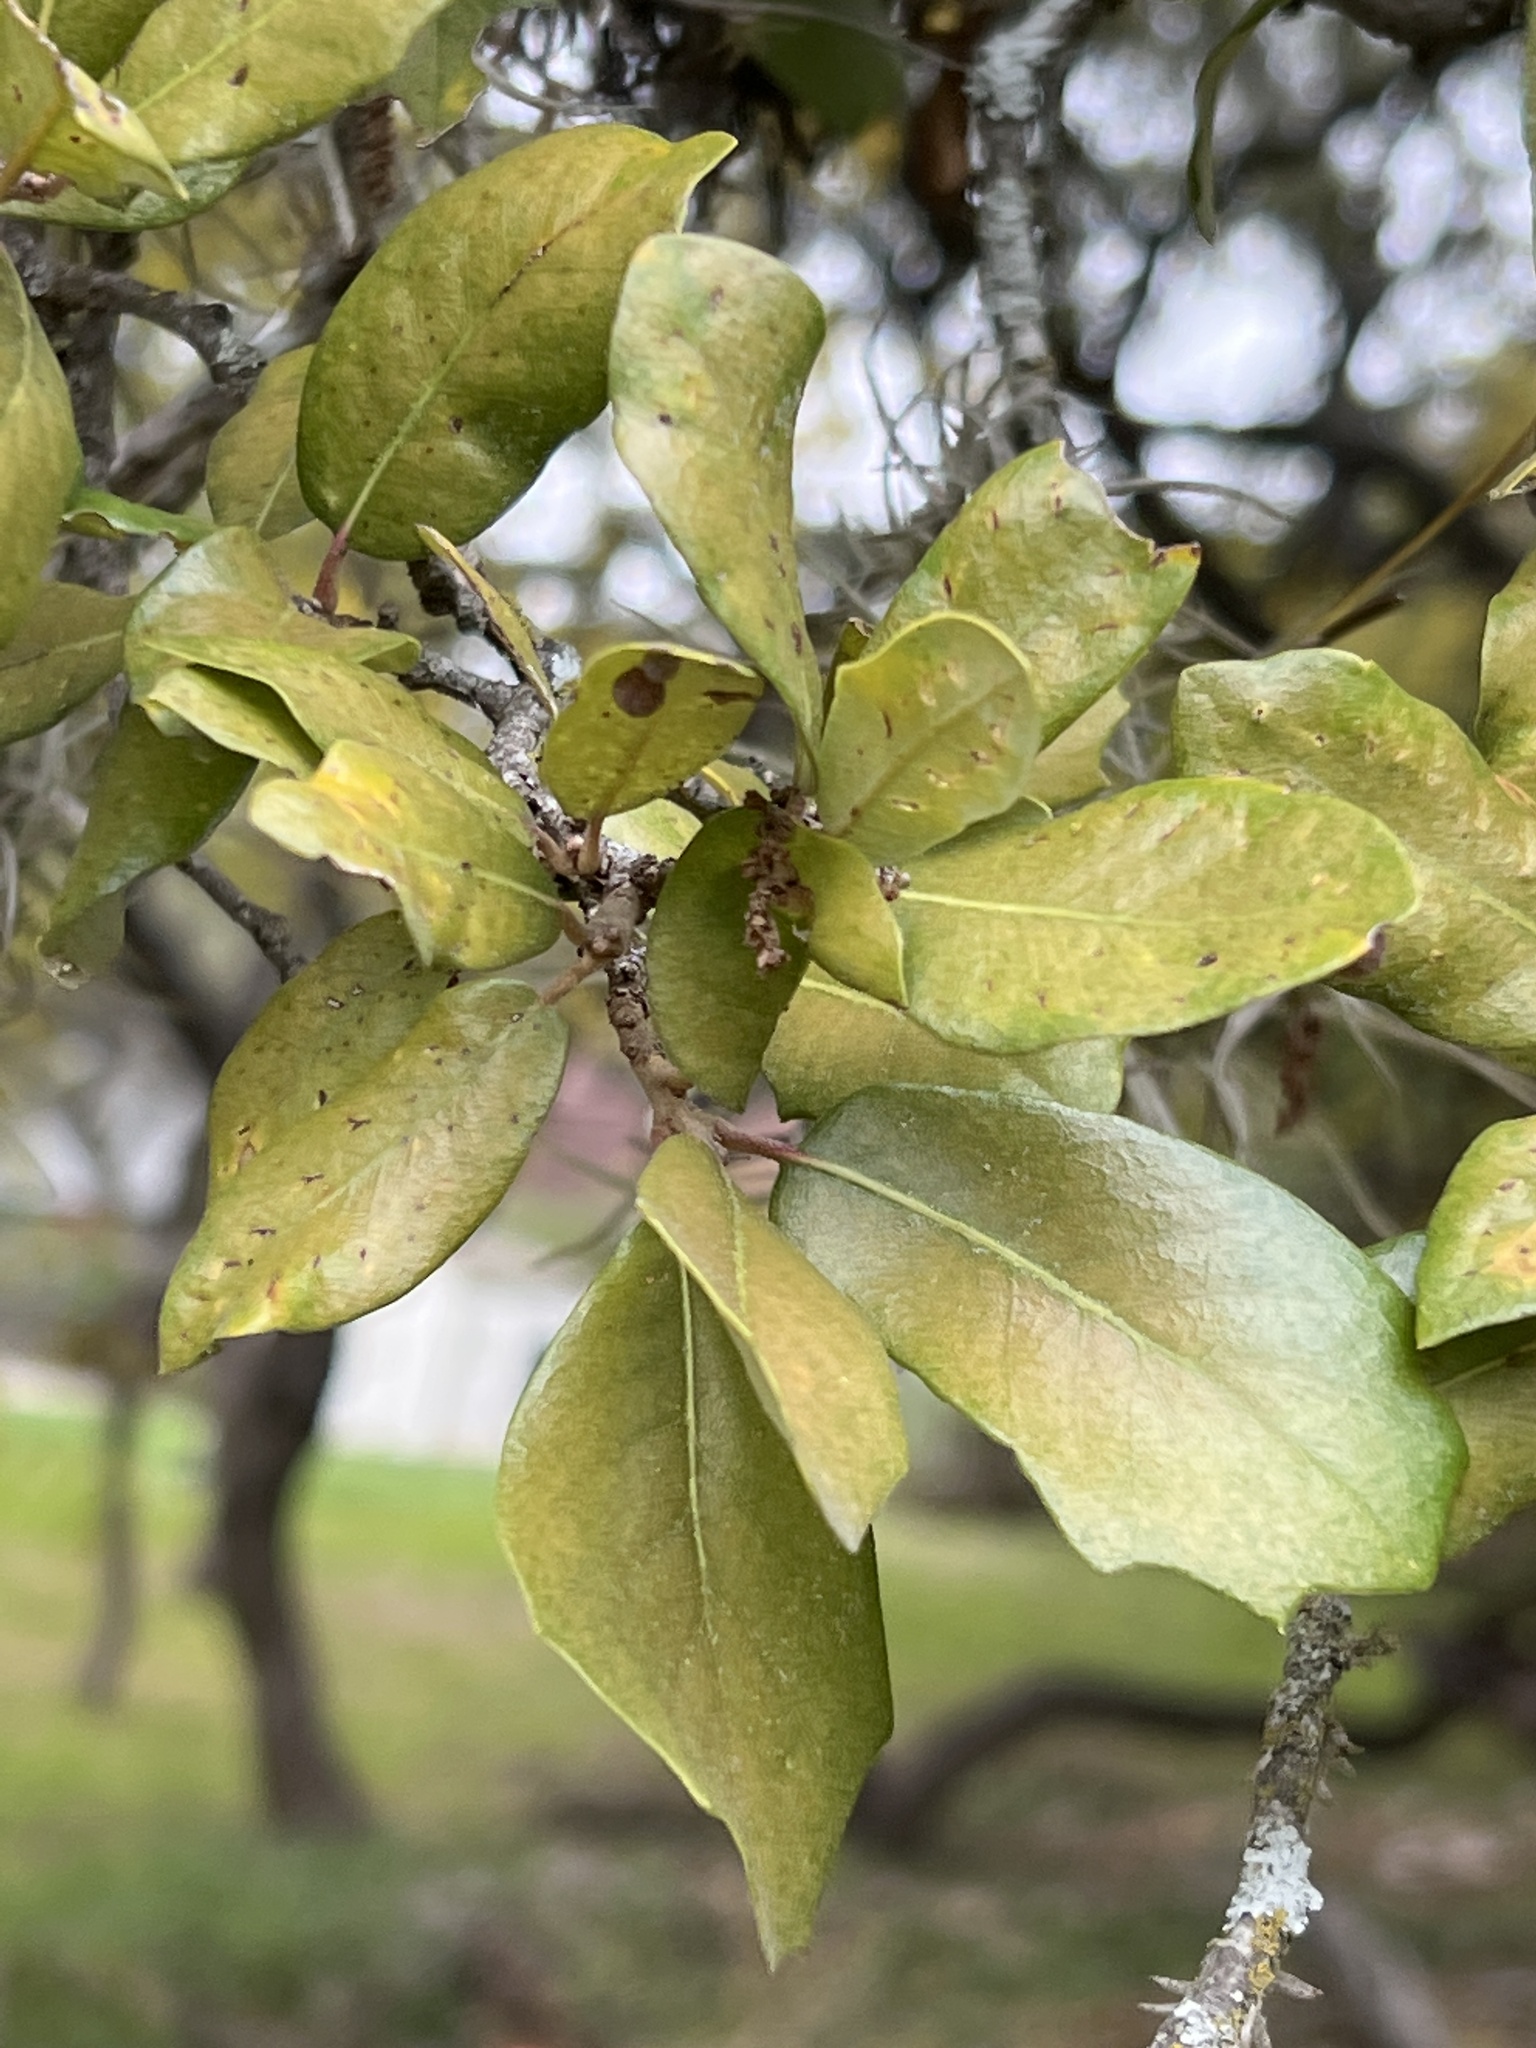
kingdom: Plantae
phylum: Tracheophyta
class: Magnoliopsida
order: Fagales
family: Fagaceae
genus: Quercus
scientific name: Quercus fusiformis
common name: Texas live oak
